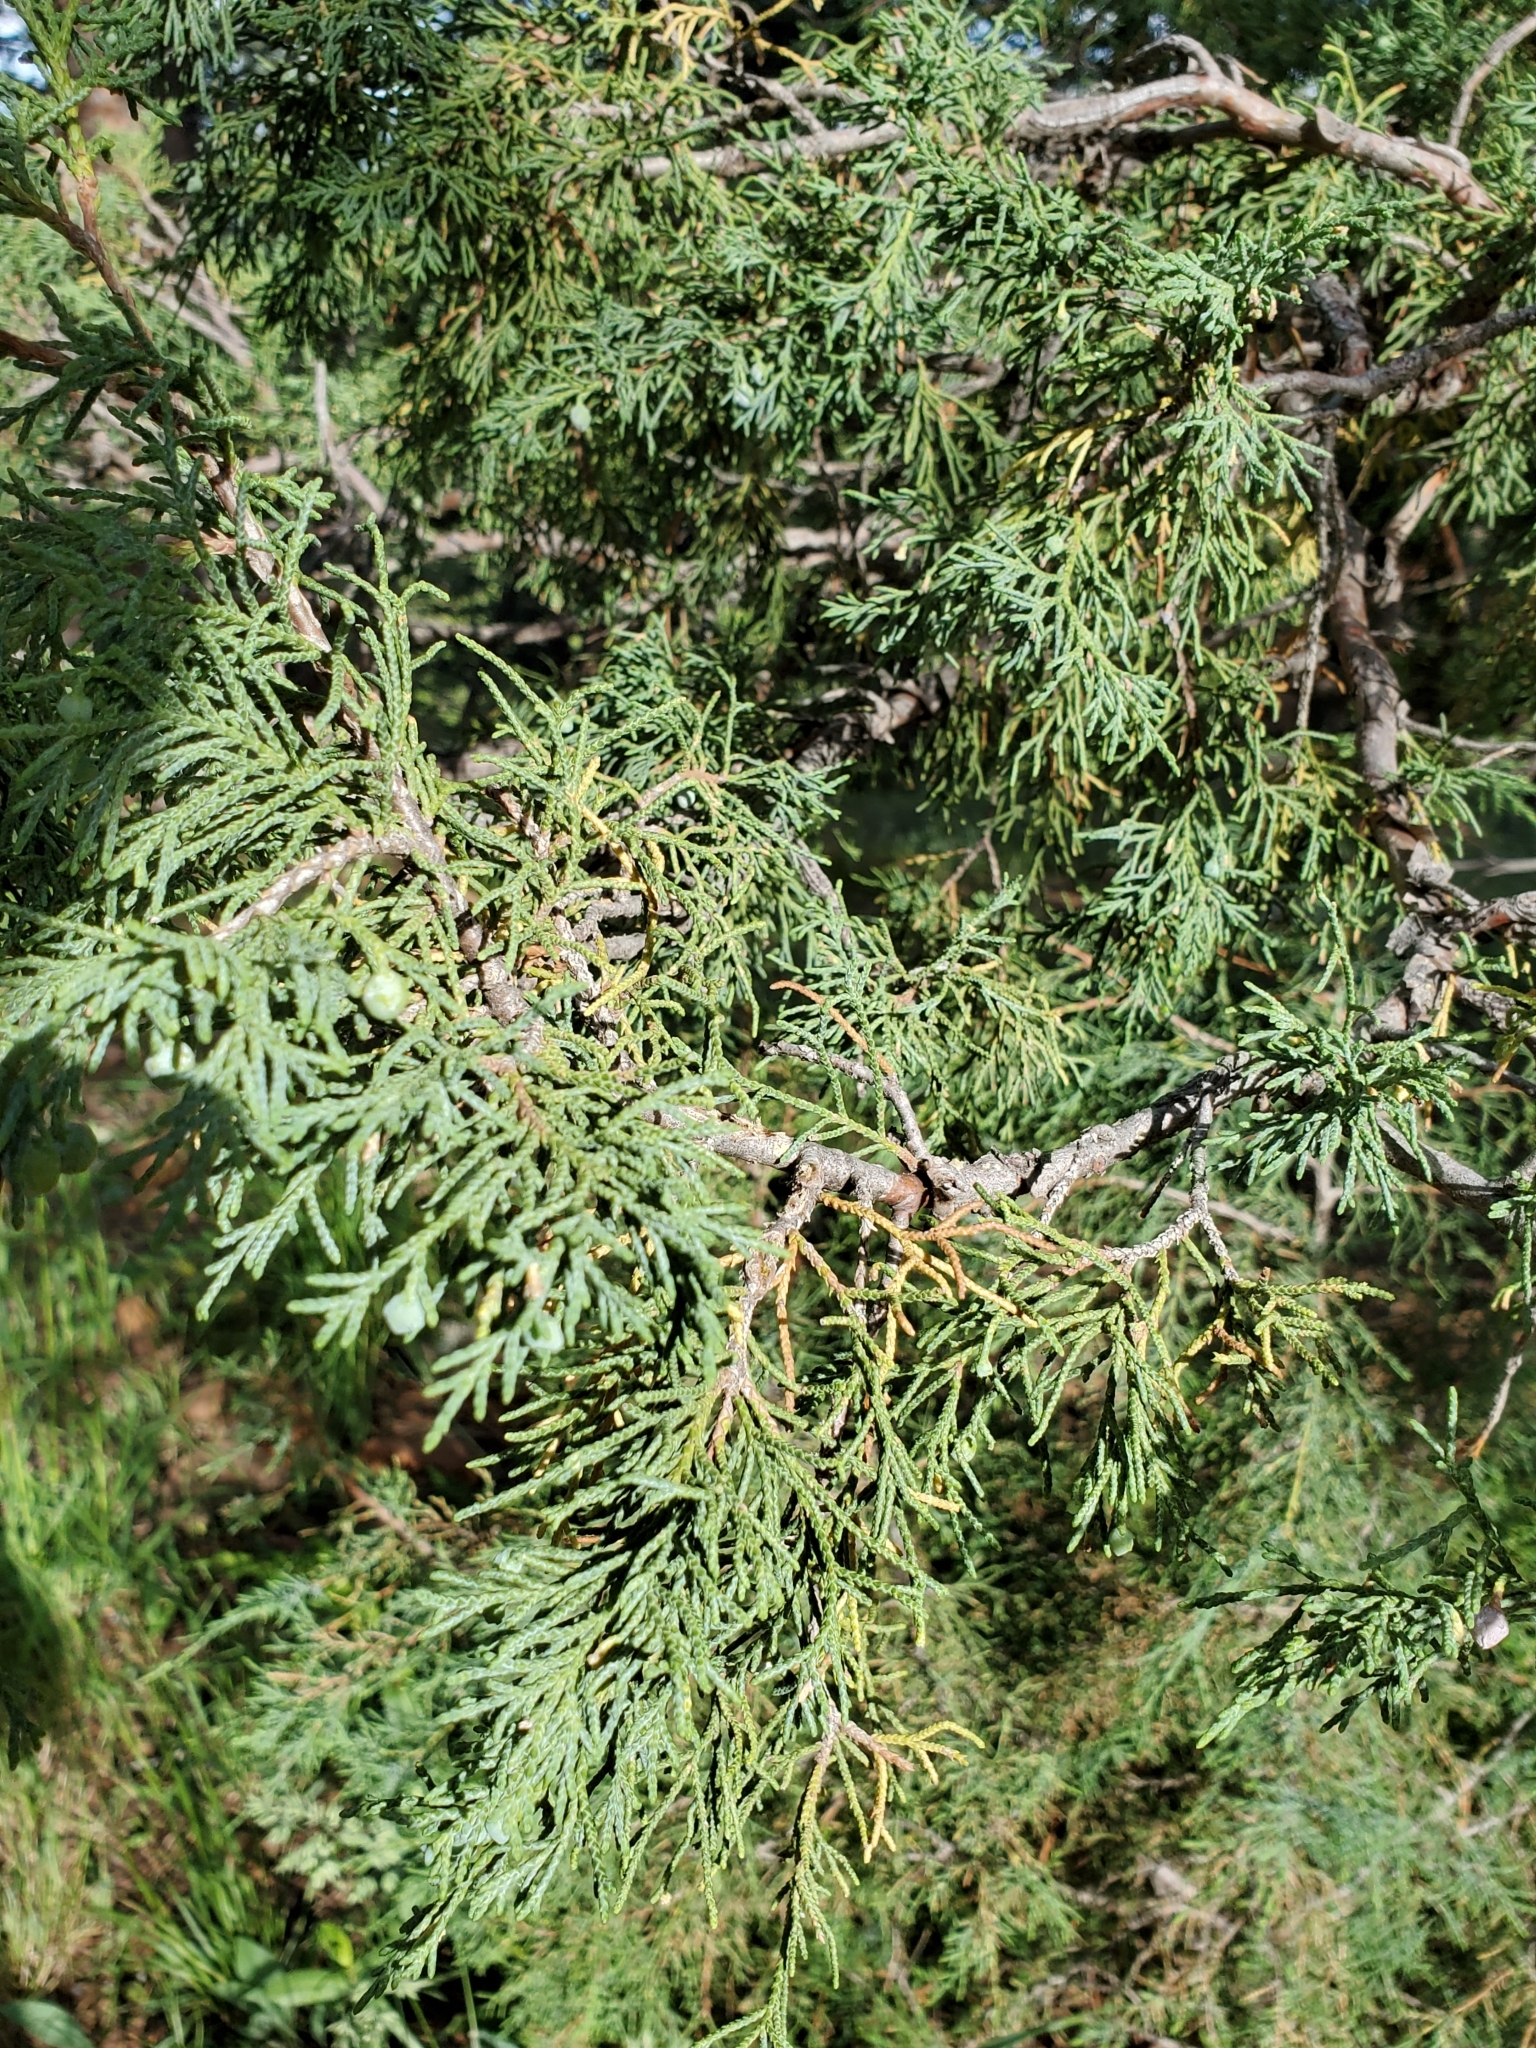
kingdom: Plantae
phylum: Tracheophyta
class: Pinopsida
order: Pinales
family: Cupressaceae
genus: Juniperus
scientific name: Juniperus scopulorum
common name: Rocky mountain juniper
